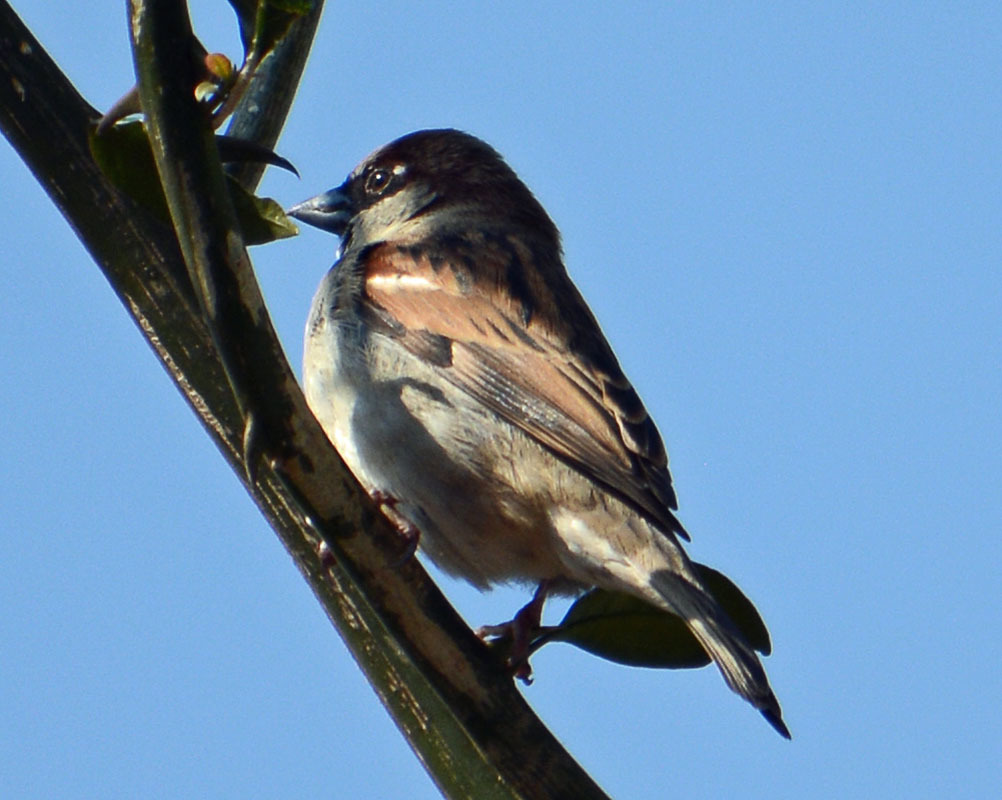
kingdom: Animalia
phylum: Chordata
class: Aves
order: Passeriformes
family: Passeridae
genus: Passer
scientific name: Passer domesticus
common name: House sparrow
